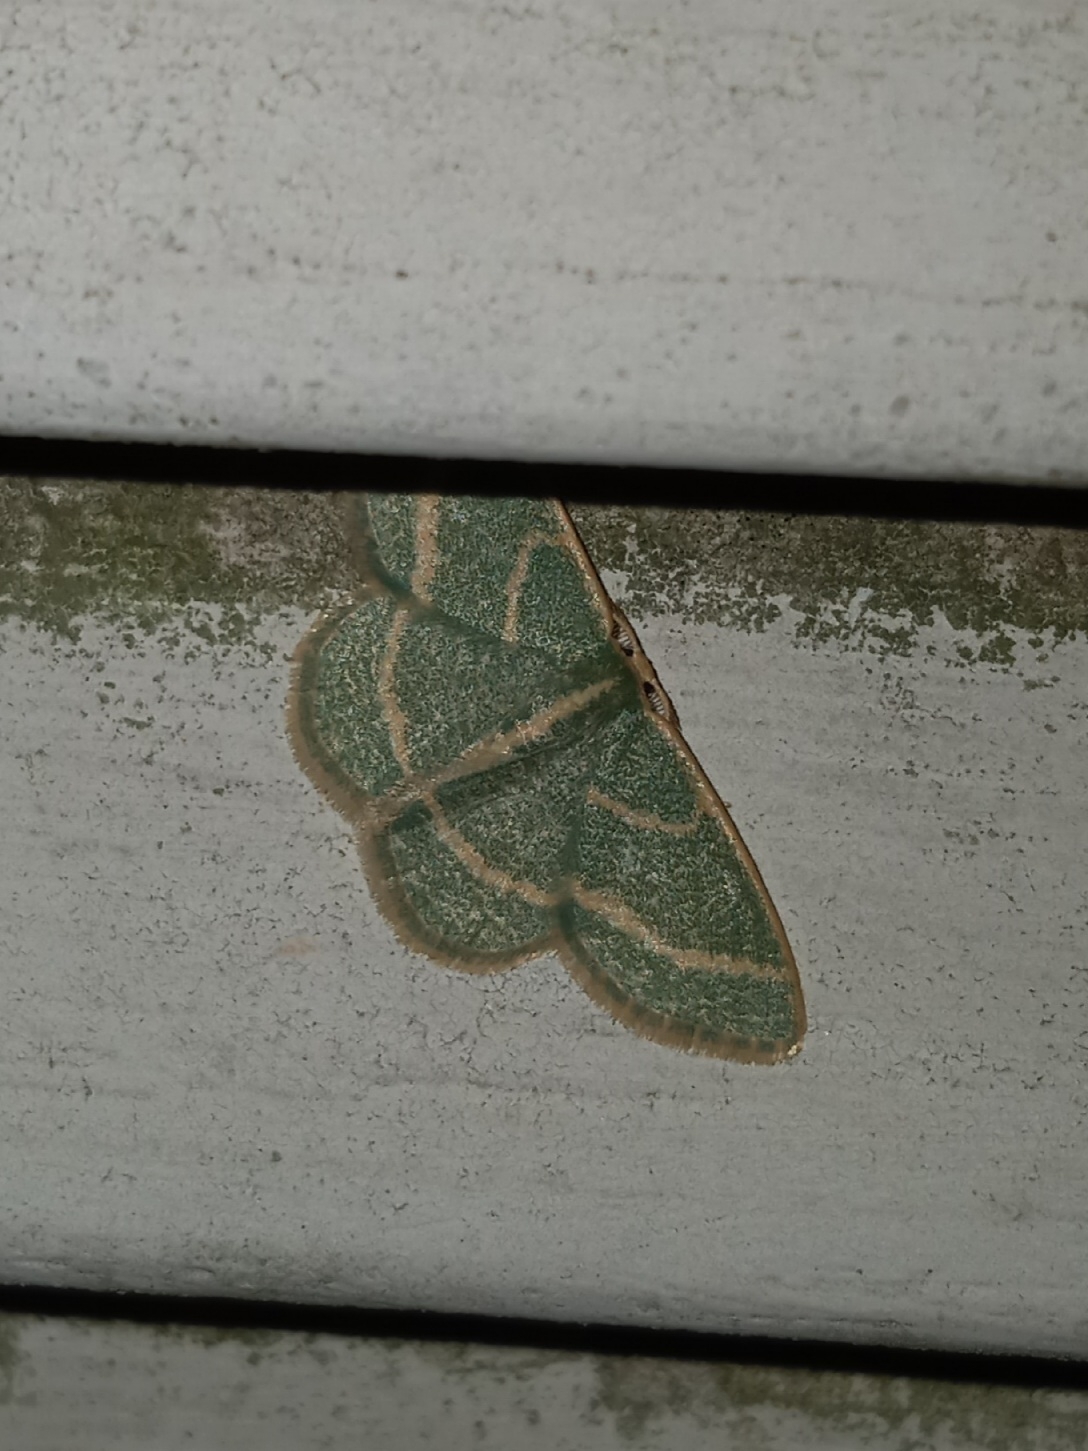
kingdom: Animalia
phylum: Arthropoda
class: Insecta
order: Lepidoptera
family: Geometridae
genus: Chlorochlamys
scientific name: Chlorochlamys chloroleucaria
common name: Blackberry looper
